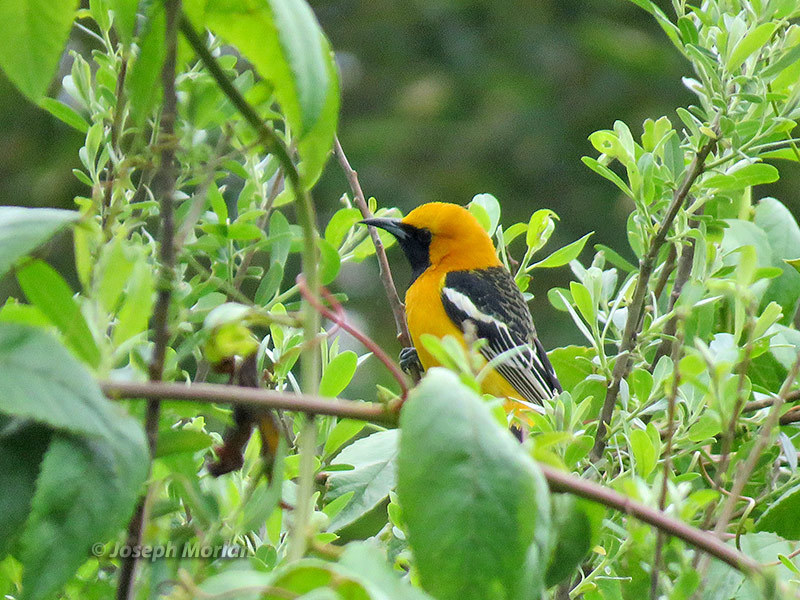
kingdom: Animalia
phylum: Chordata
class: Aves
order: Passeriformes
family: Icteridae
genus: Icterus
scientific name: Icterus cucullatus
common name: Hooded oriole
